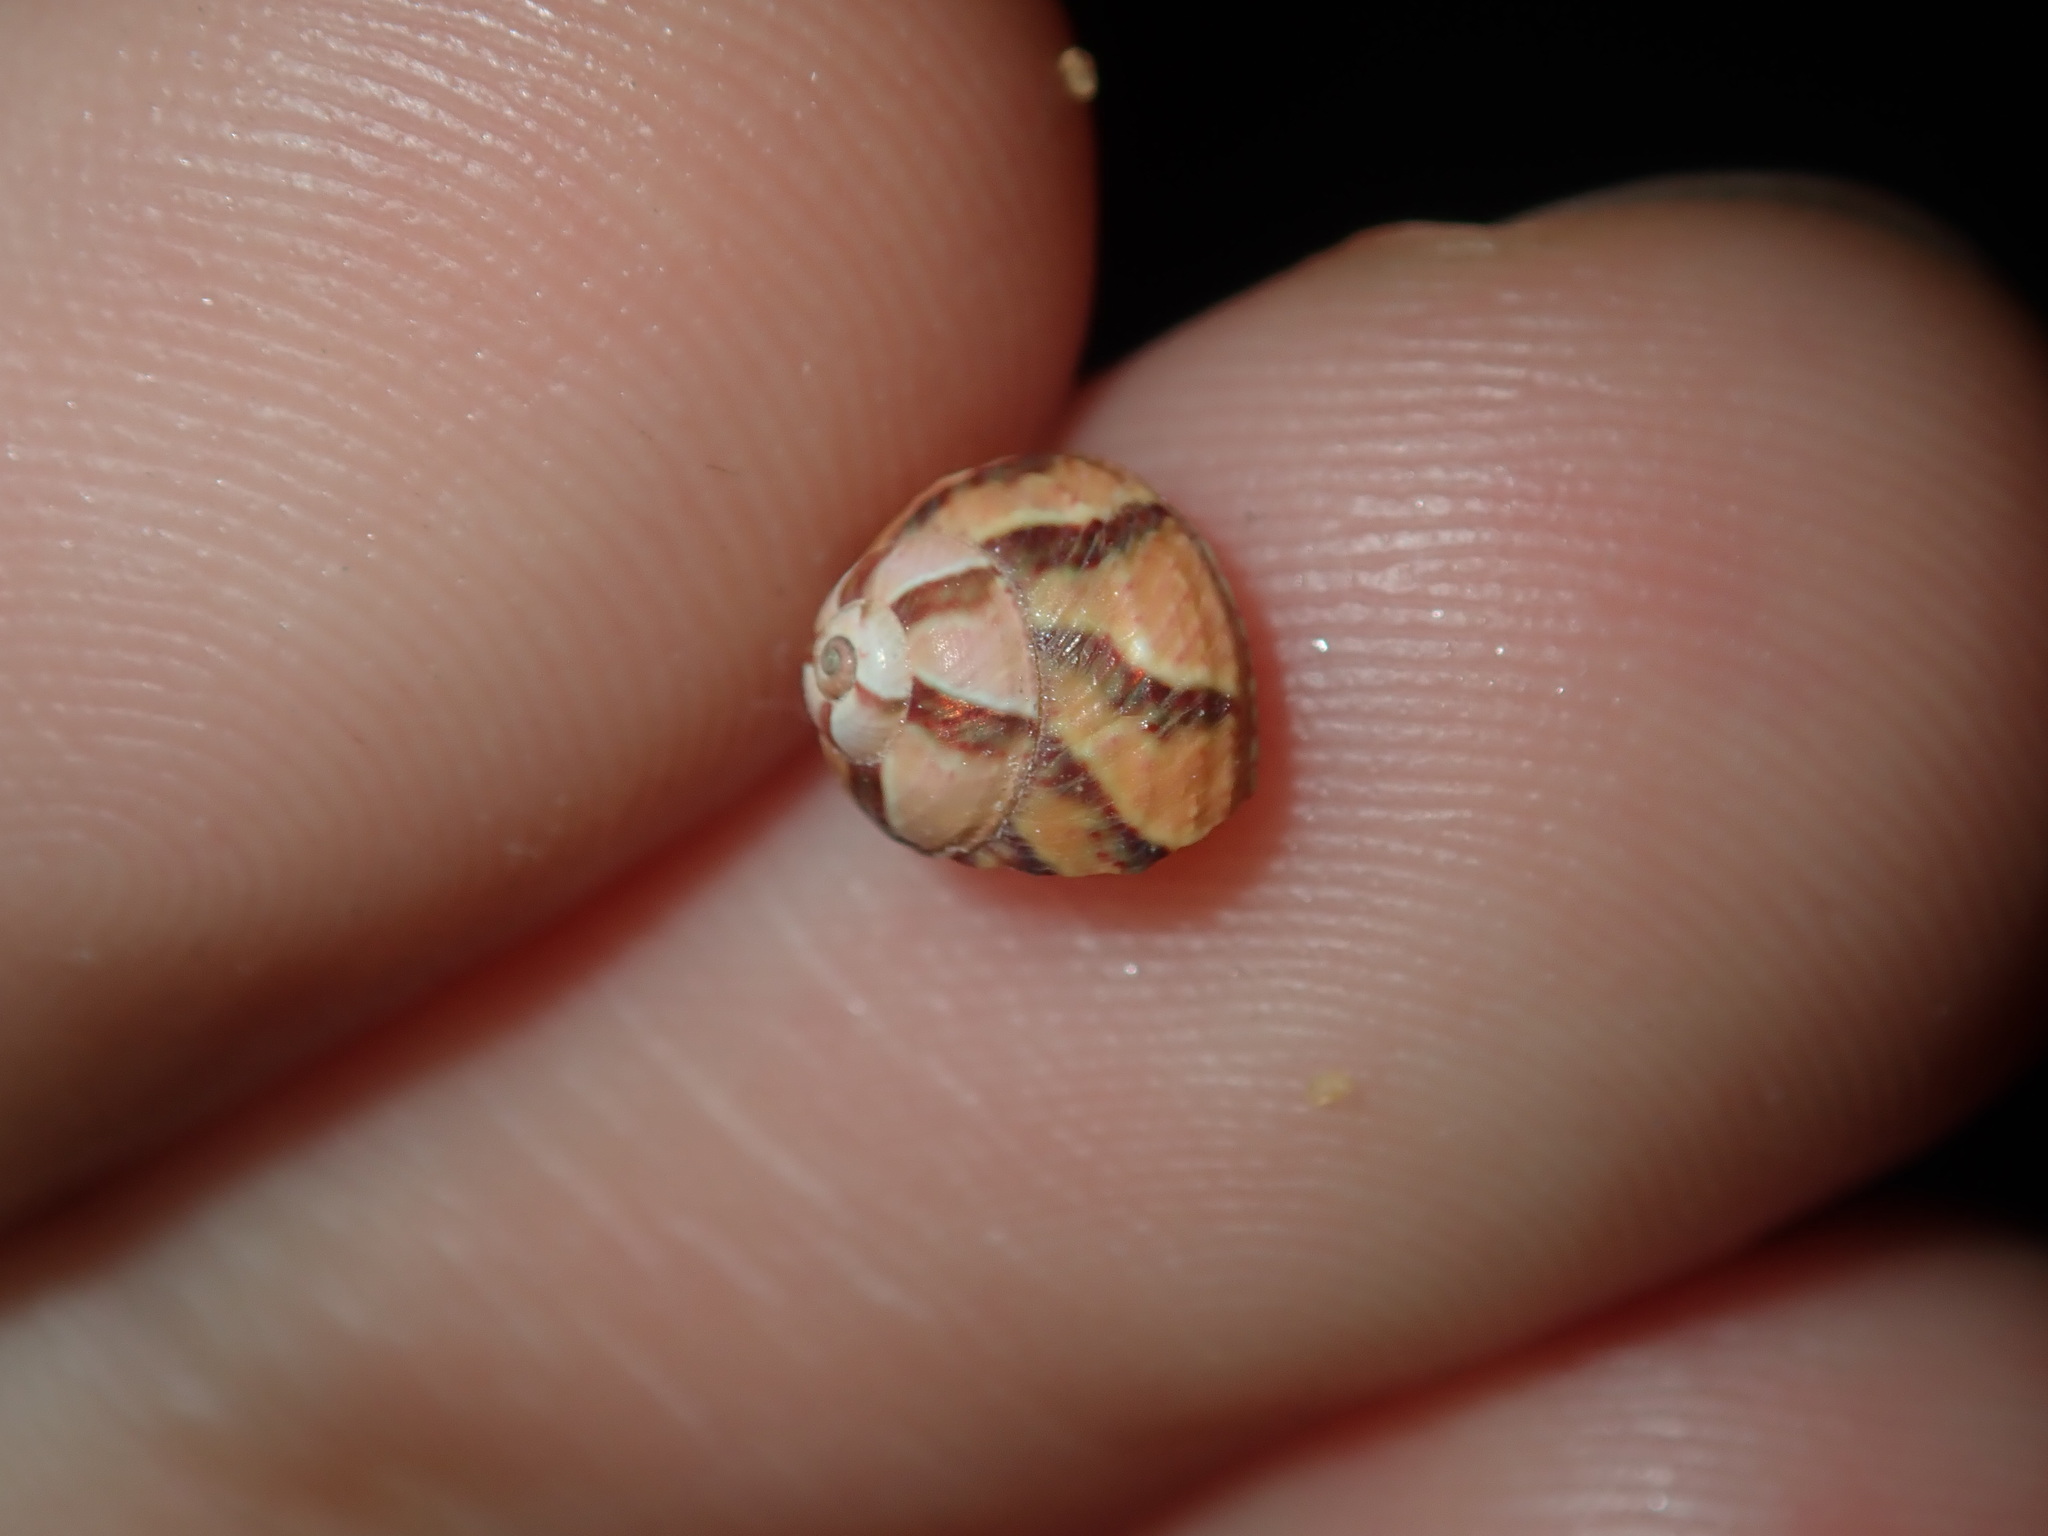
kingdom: Animalia
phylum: Mollusca
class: Gastropoda
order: Trochida
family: Trochidae
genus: Cantharidella
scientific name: Cantharidella picturata
